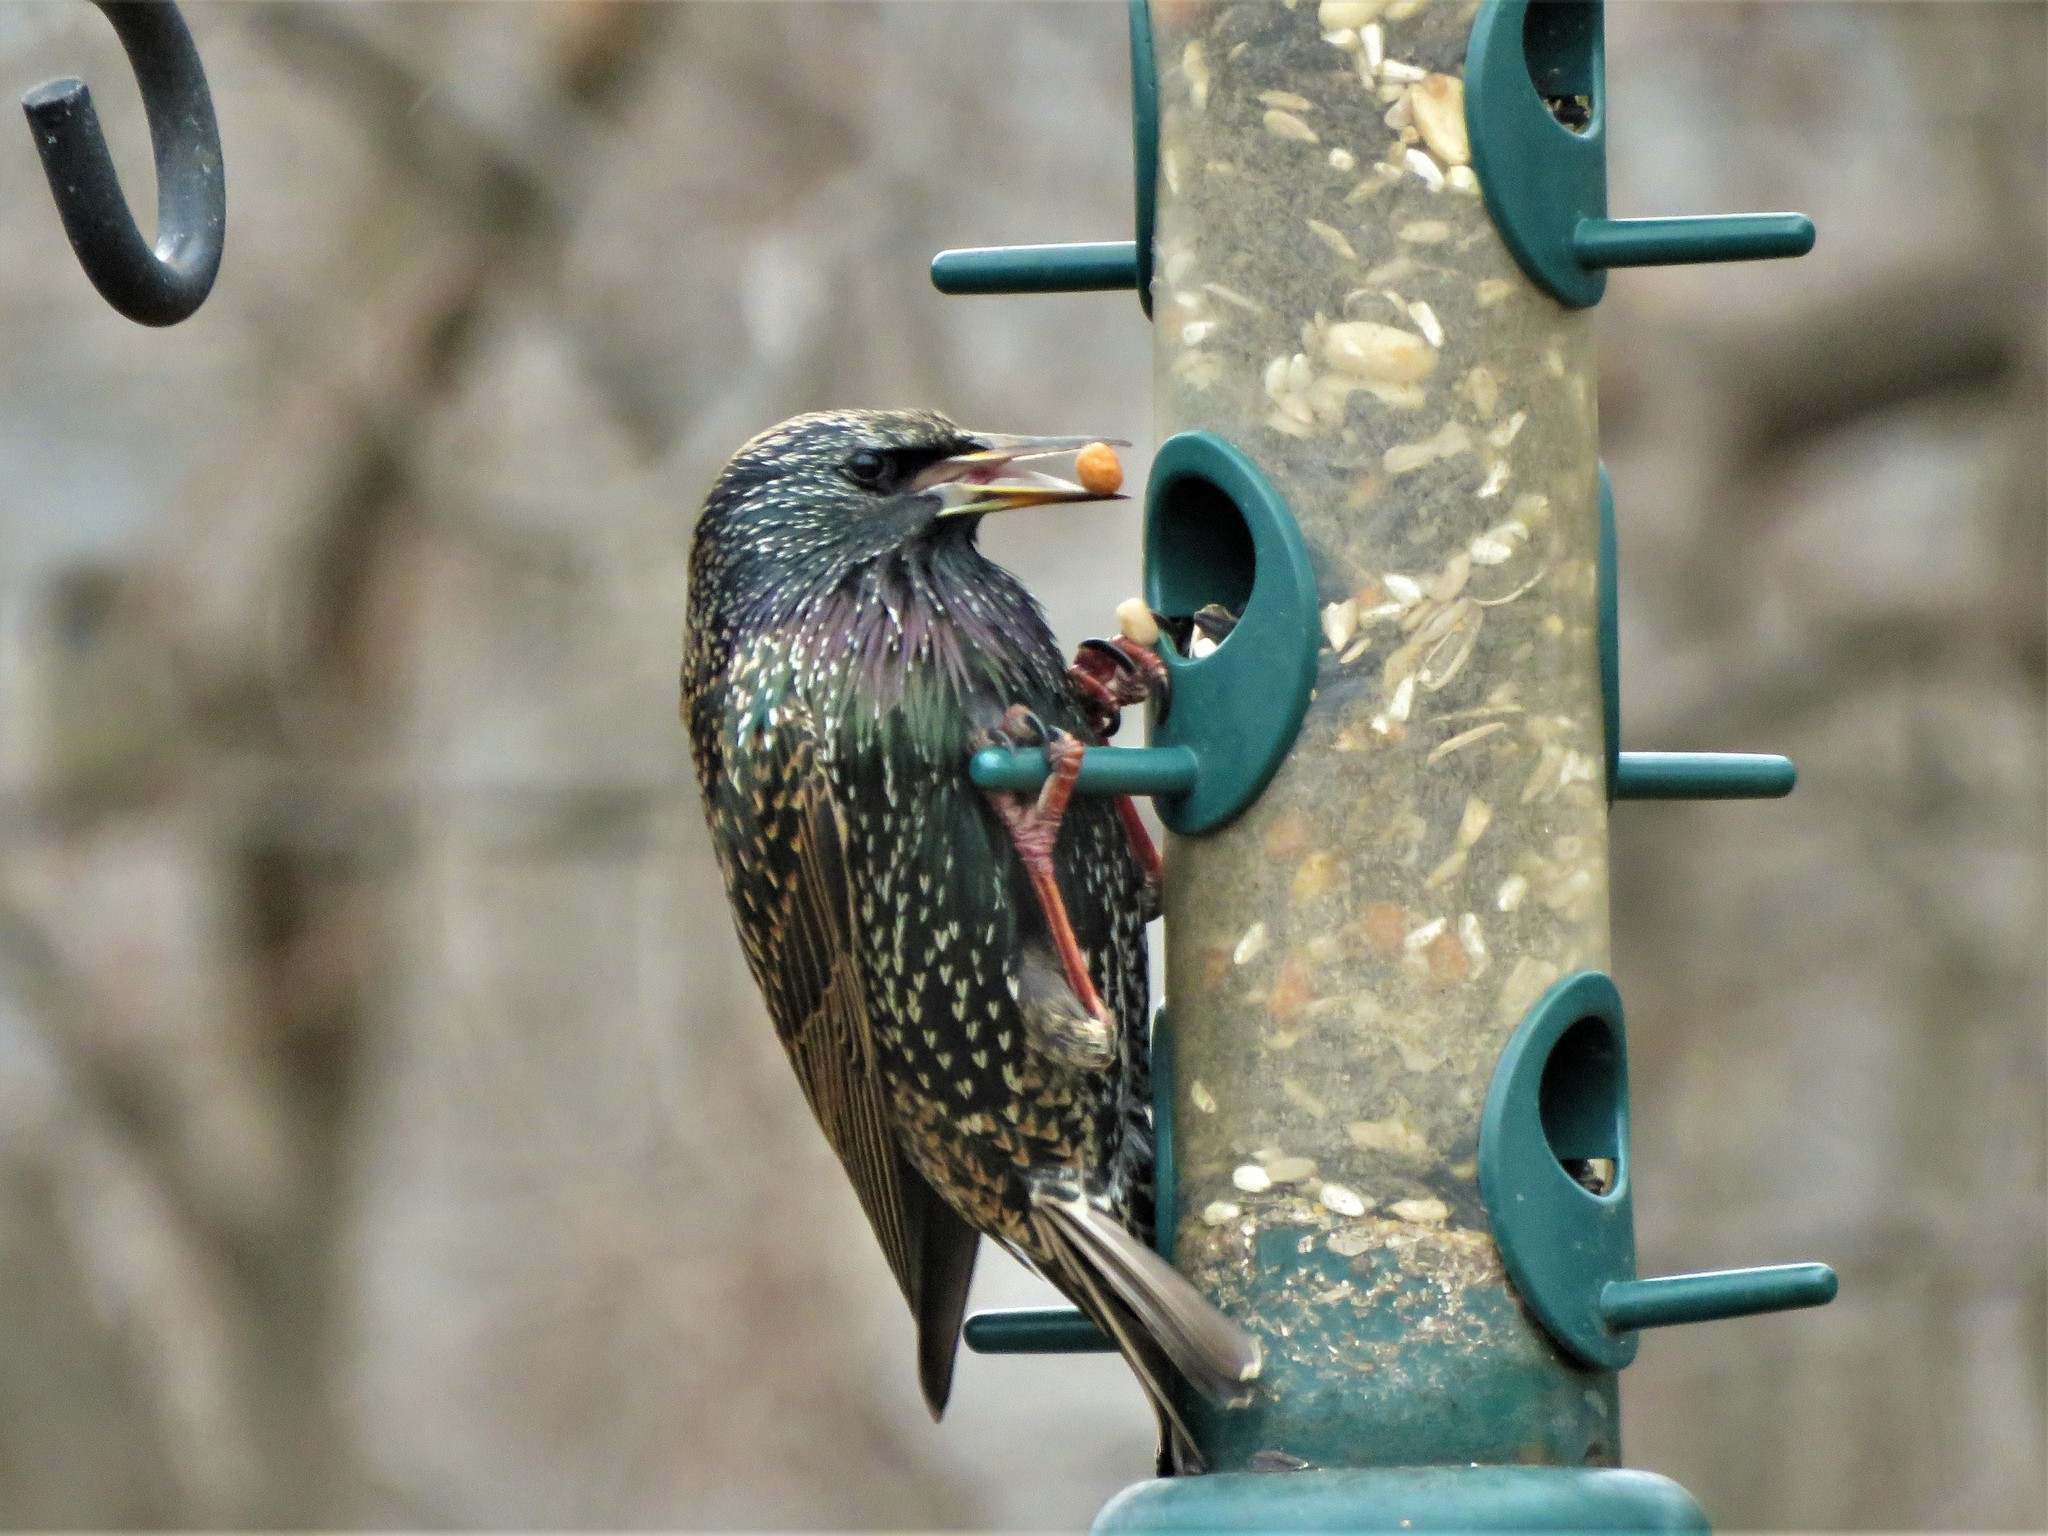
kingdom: Animalia
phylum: Chordata
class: Aves
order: Passeriformes
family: Sturnidae
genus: Sturnus
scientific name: Sturnus vulgaris
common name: Common starling
